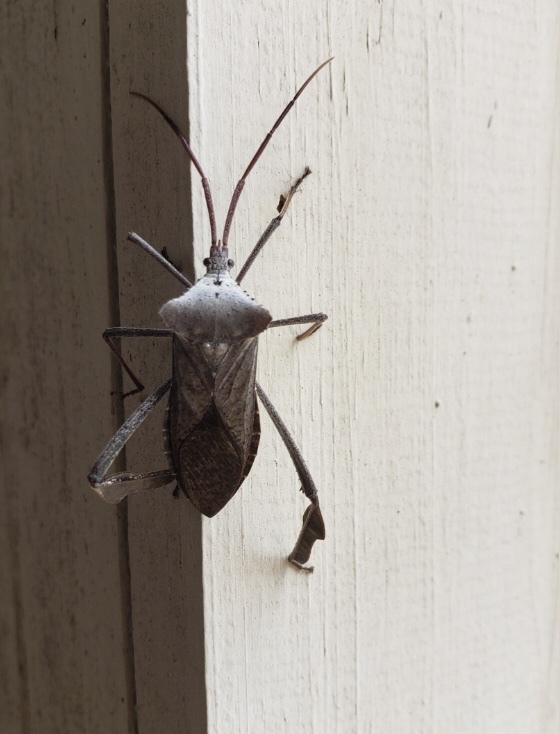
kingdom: Animalia
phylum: Arthropoda
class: Insecta
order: Hemiptera
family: Coreidae
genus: Acanthocephala
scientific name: Acanthocephala declivis
